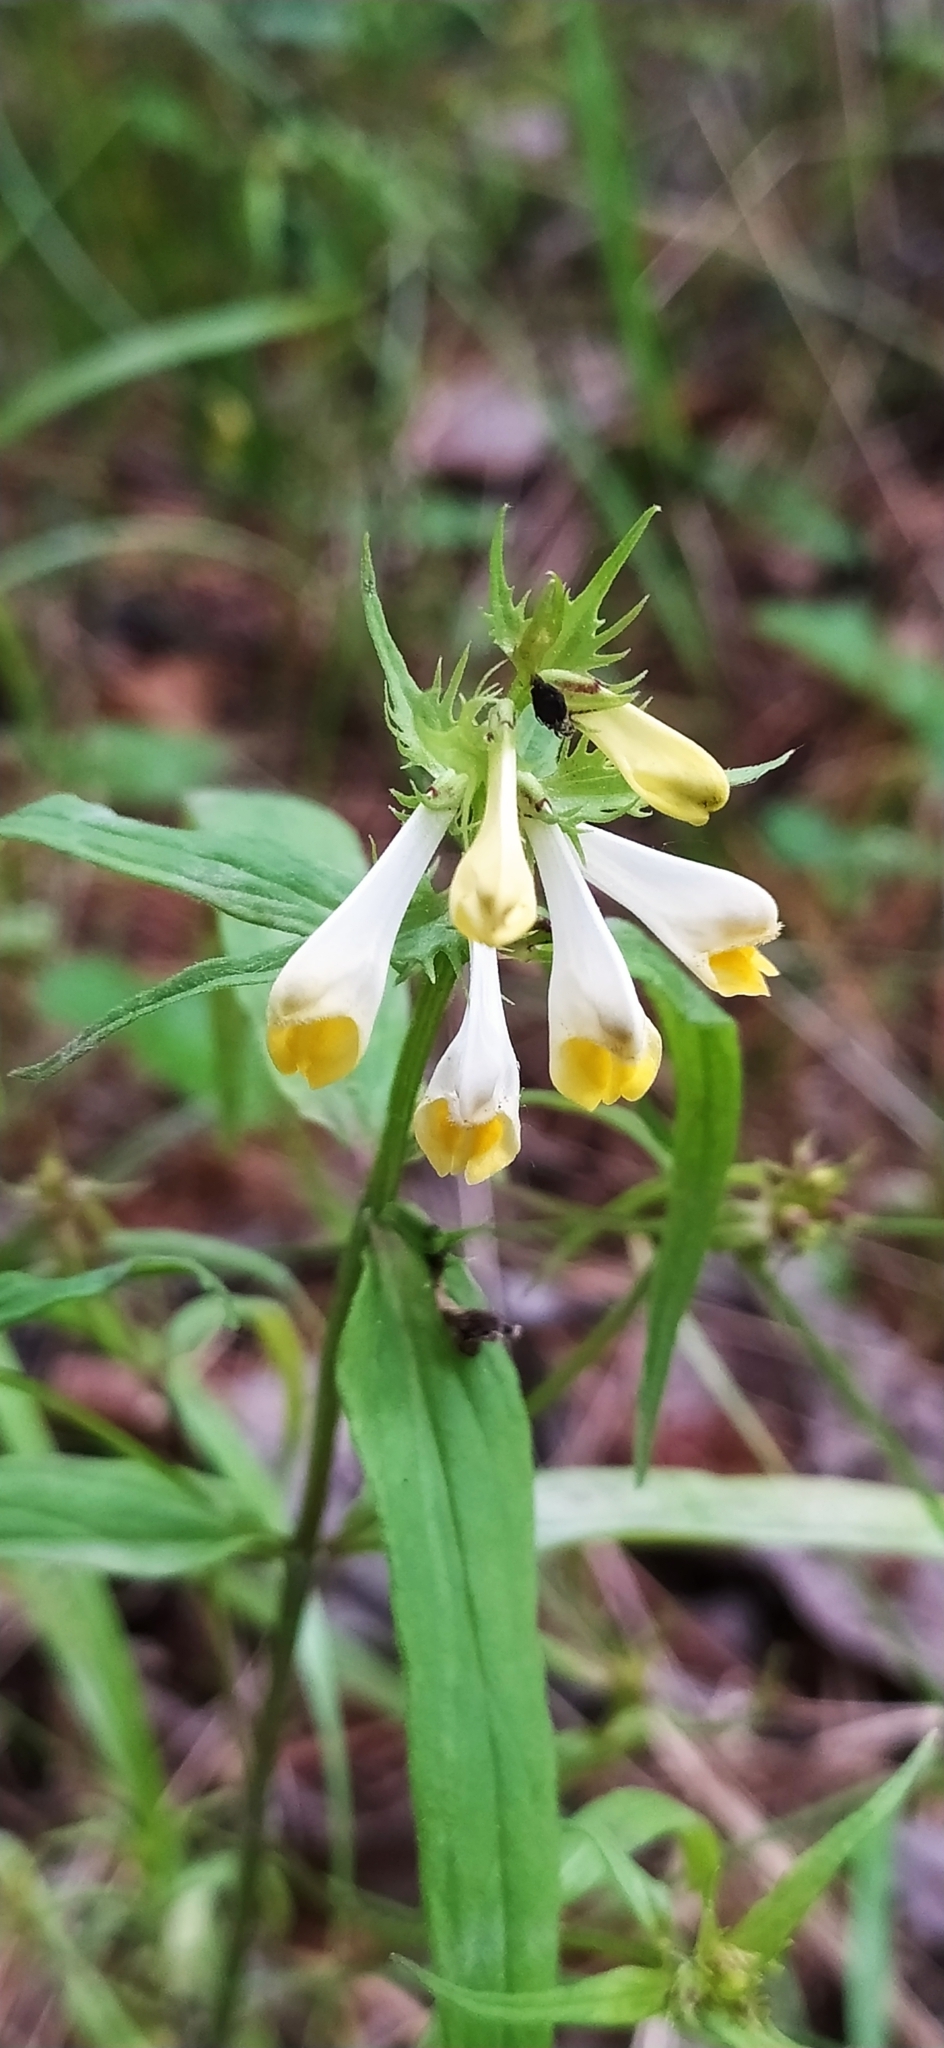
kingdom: Plantae
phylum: Tracheophyta
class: Magnoliopsida
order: Lamiales
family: Orobanchaceae
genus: Melampyrum
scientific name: Melampyrum pratense
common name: Common cow-wheat
